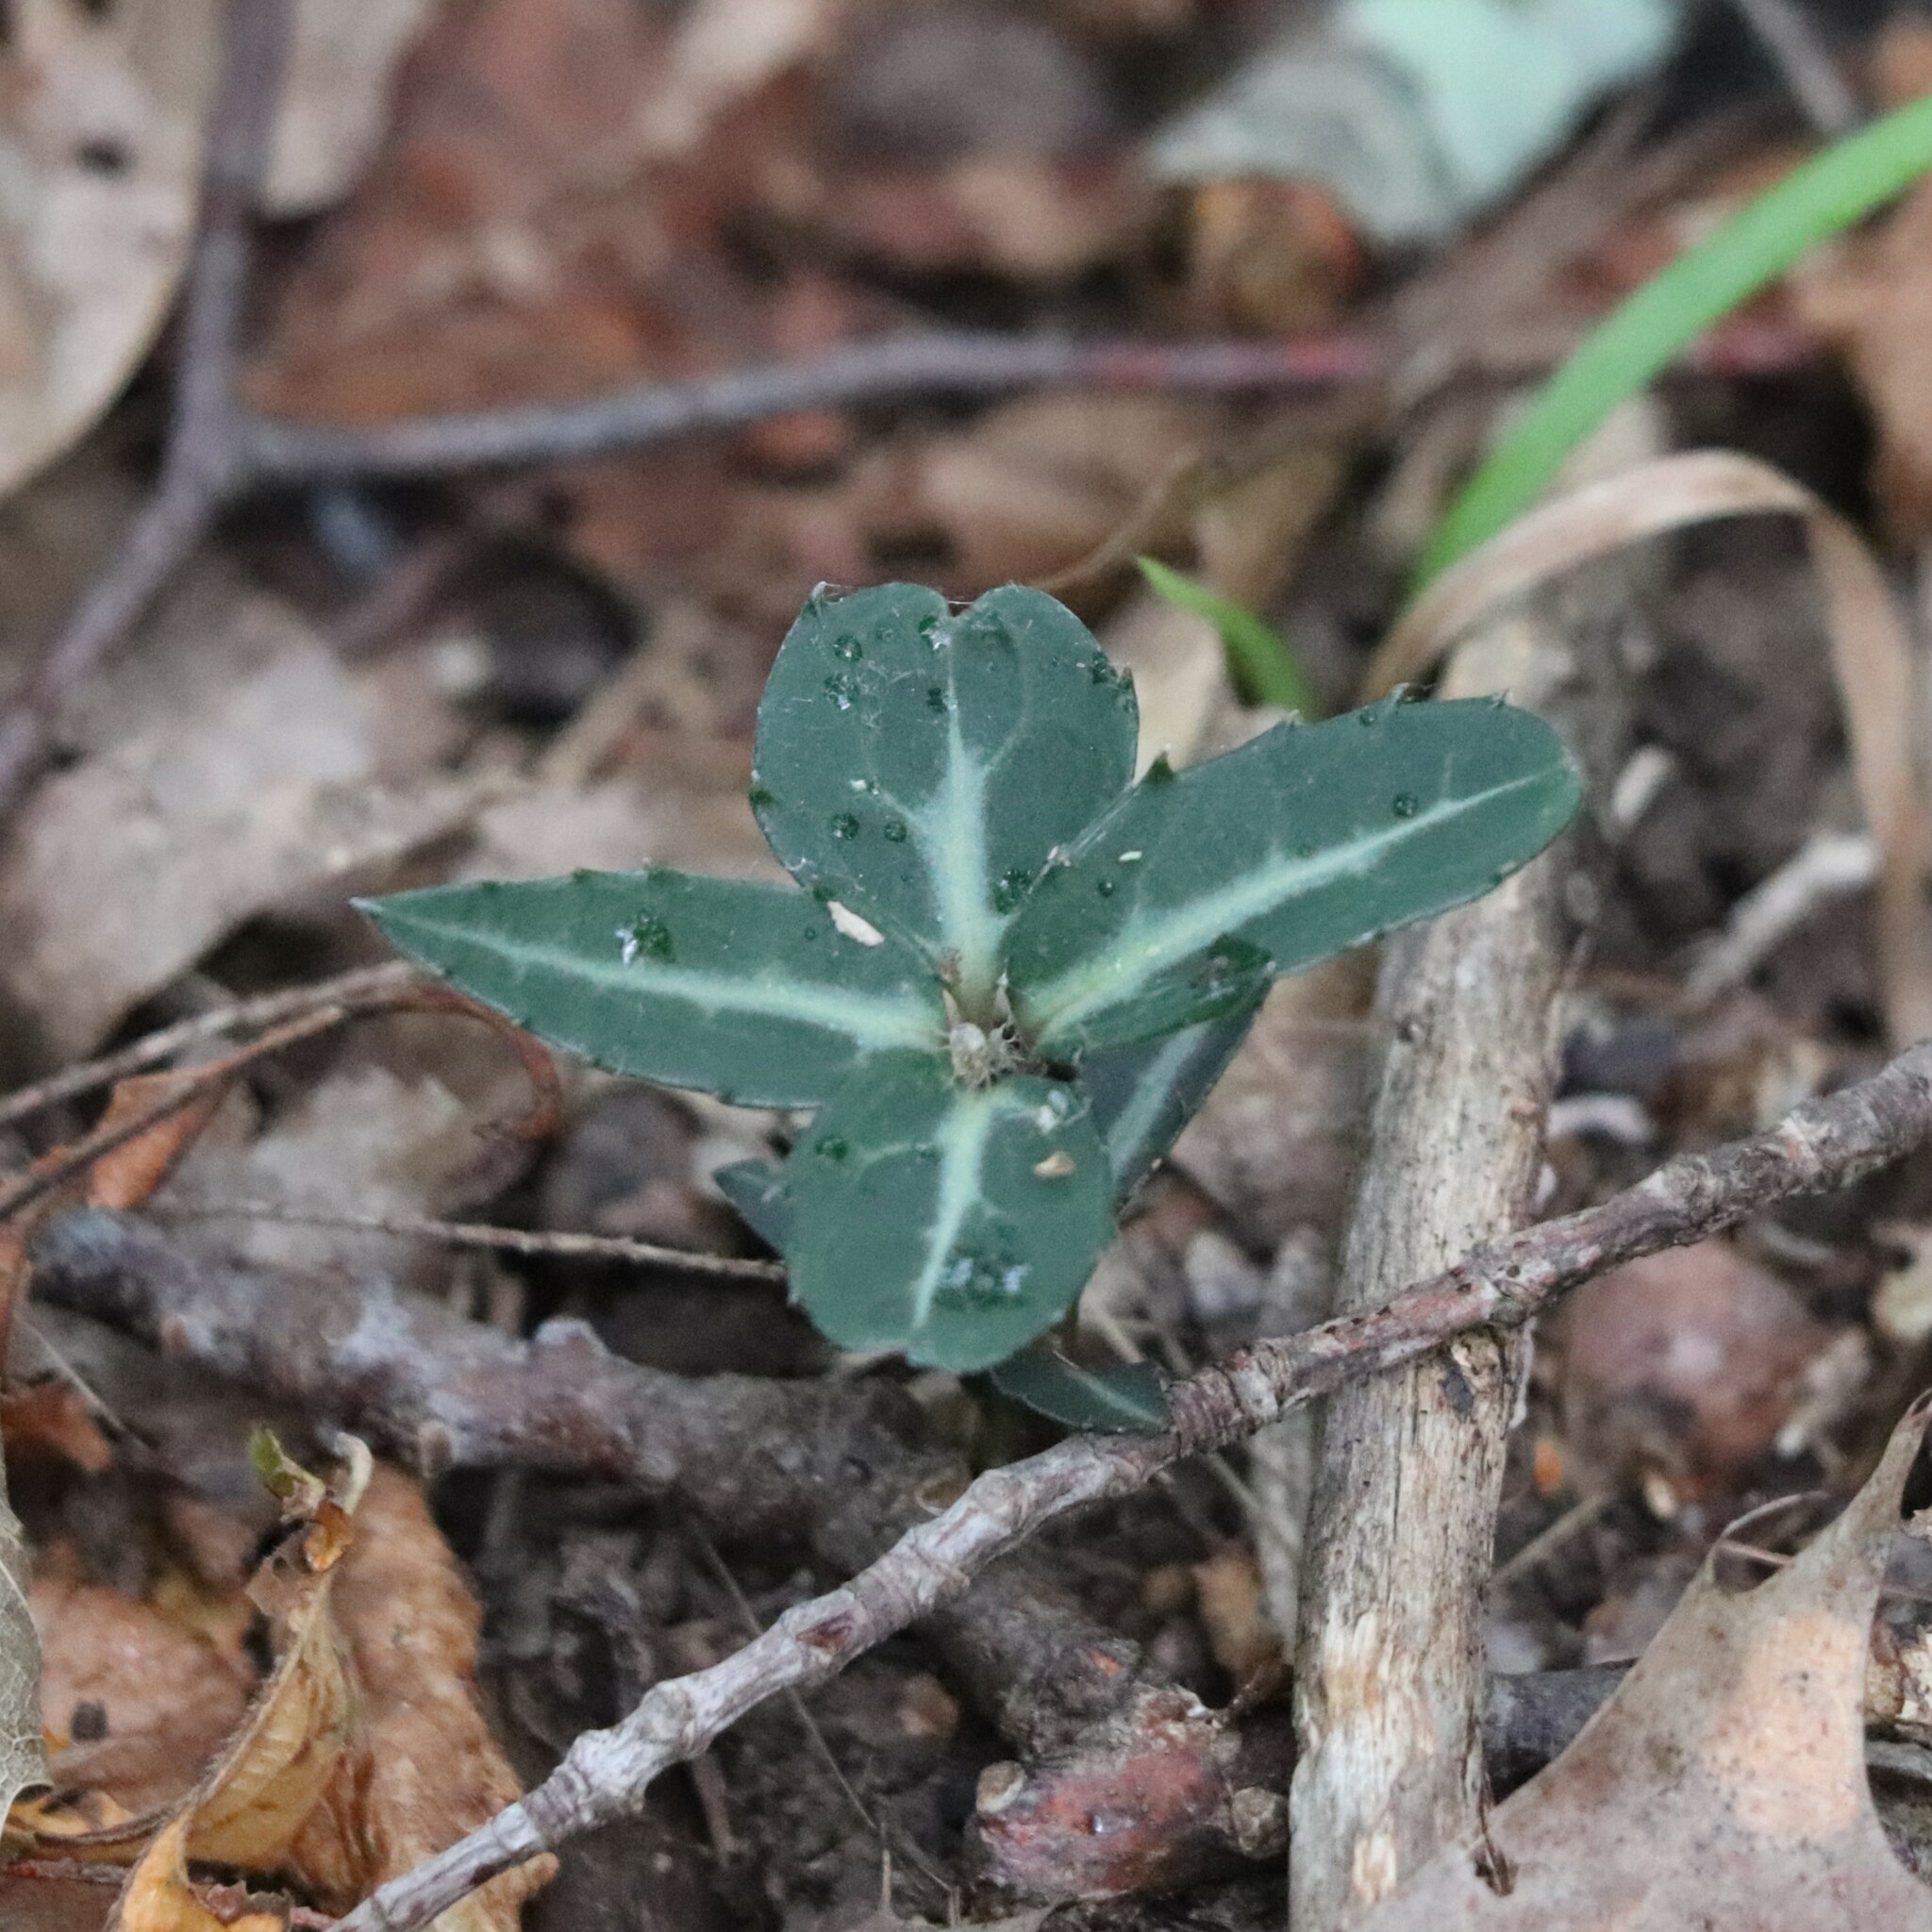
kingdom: Plantae
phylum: Tracheophyta
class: Magnoliopsida
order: Ericales
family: Ericaceae
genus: Chimaphila
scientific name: Chimaphila maculata
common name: Spotted pipsissewa
